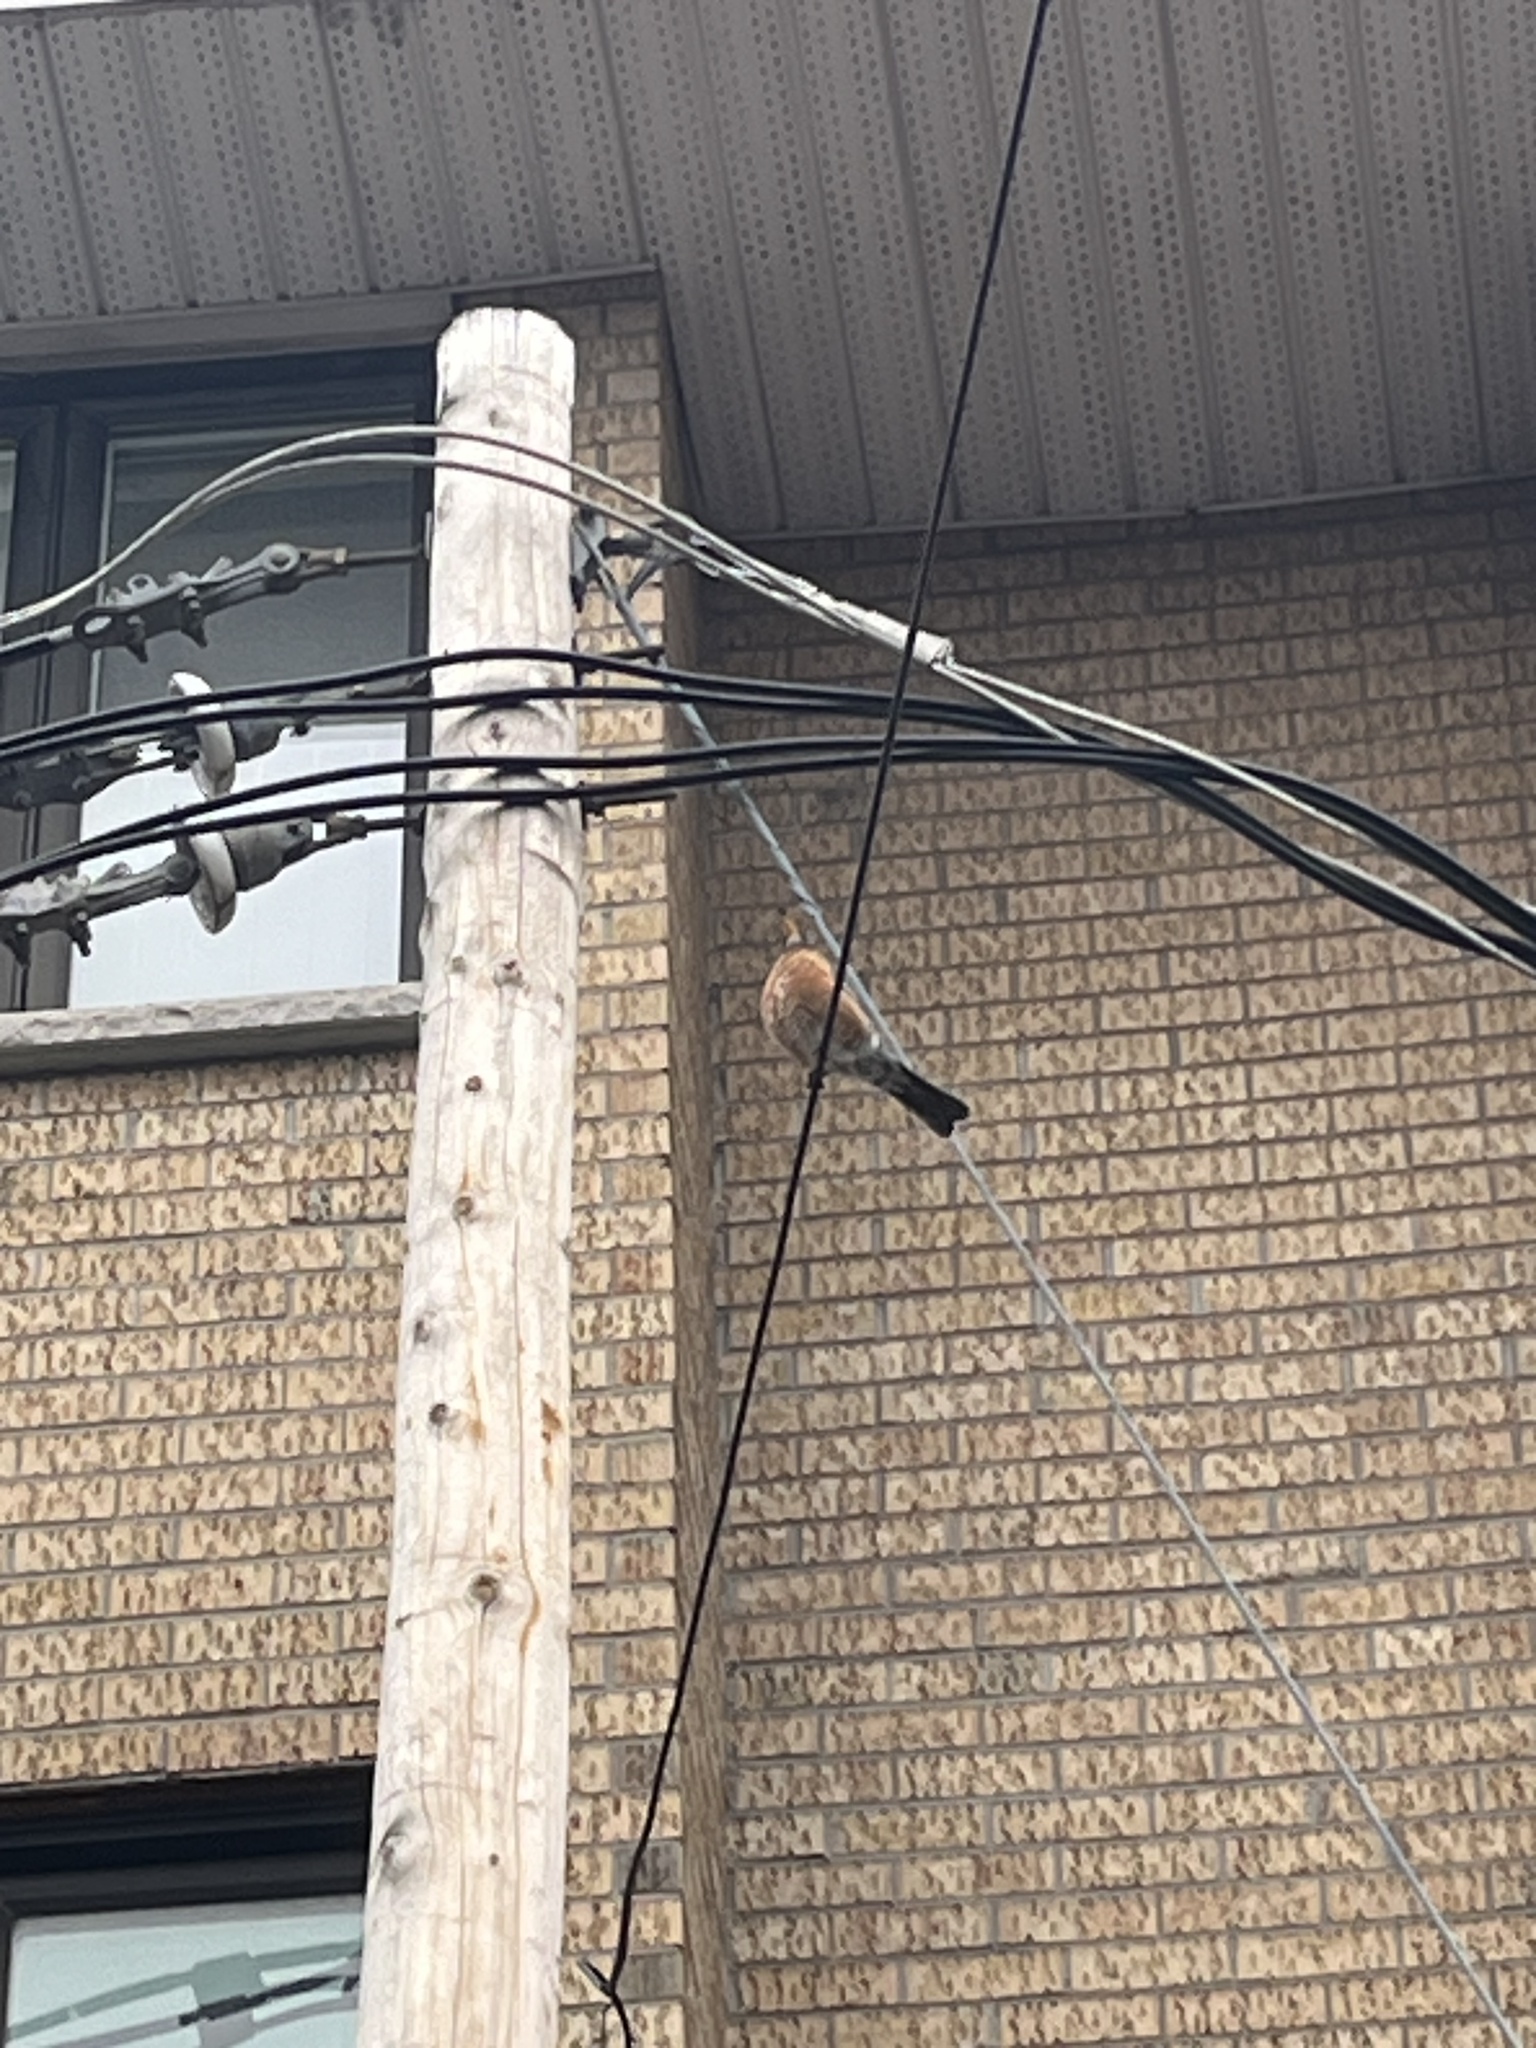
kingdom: Animalia
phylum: Chordata
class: Aves
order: Passeriformes
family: Turdidae
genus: Turdus
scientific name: Turdus migratorius
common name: American robin
